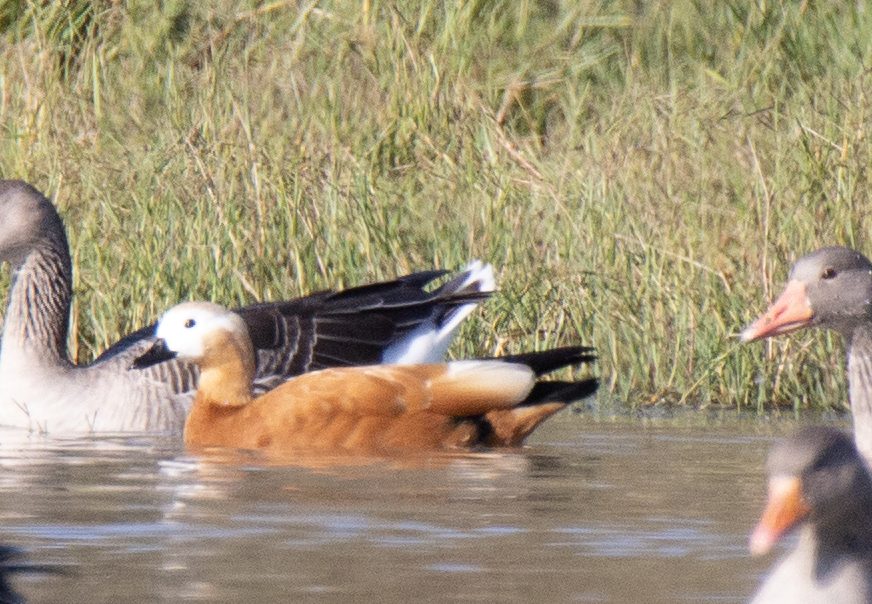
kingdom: Animalia
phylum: Chordata
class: Aves
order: Anseriformes
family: Anatidae
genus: Tadorna
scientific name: Tadorna ferruginea
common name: Ruddy shelduck
